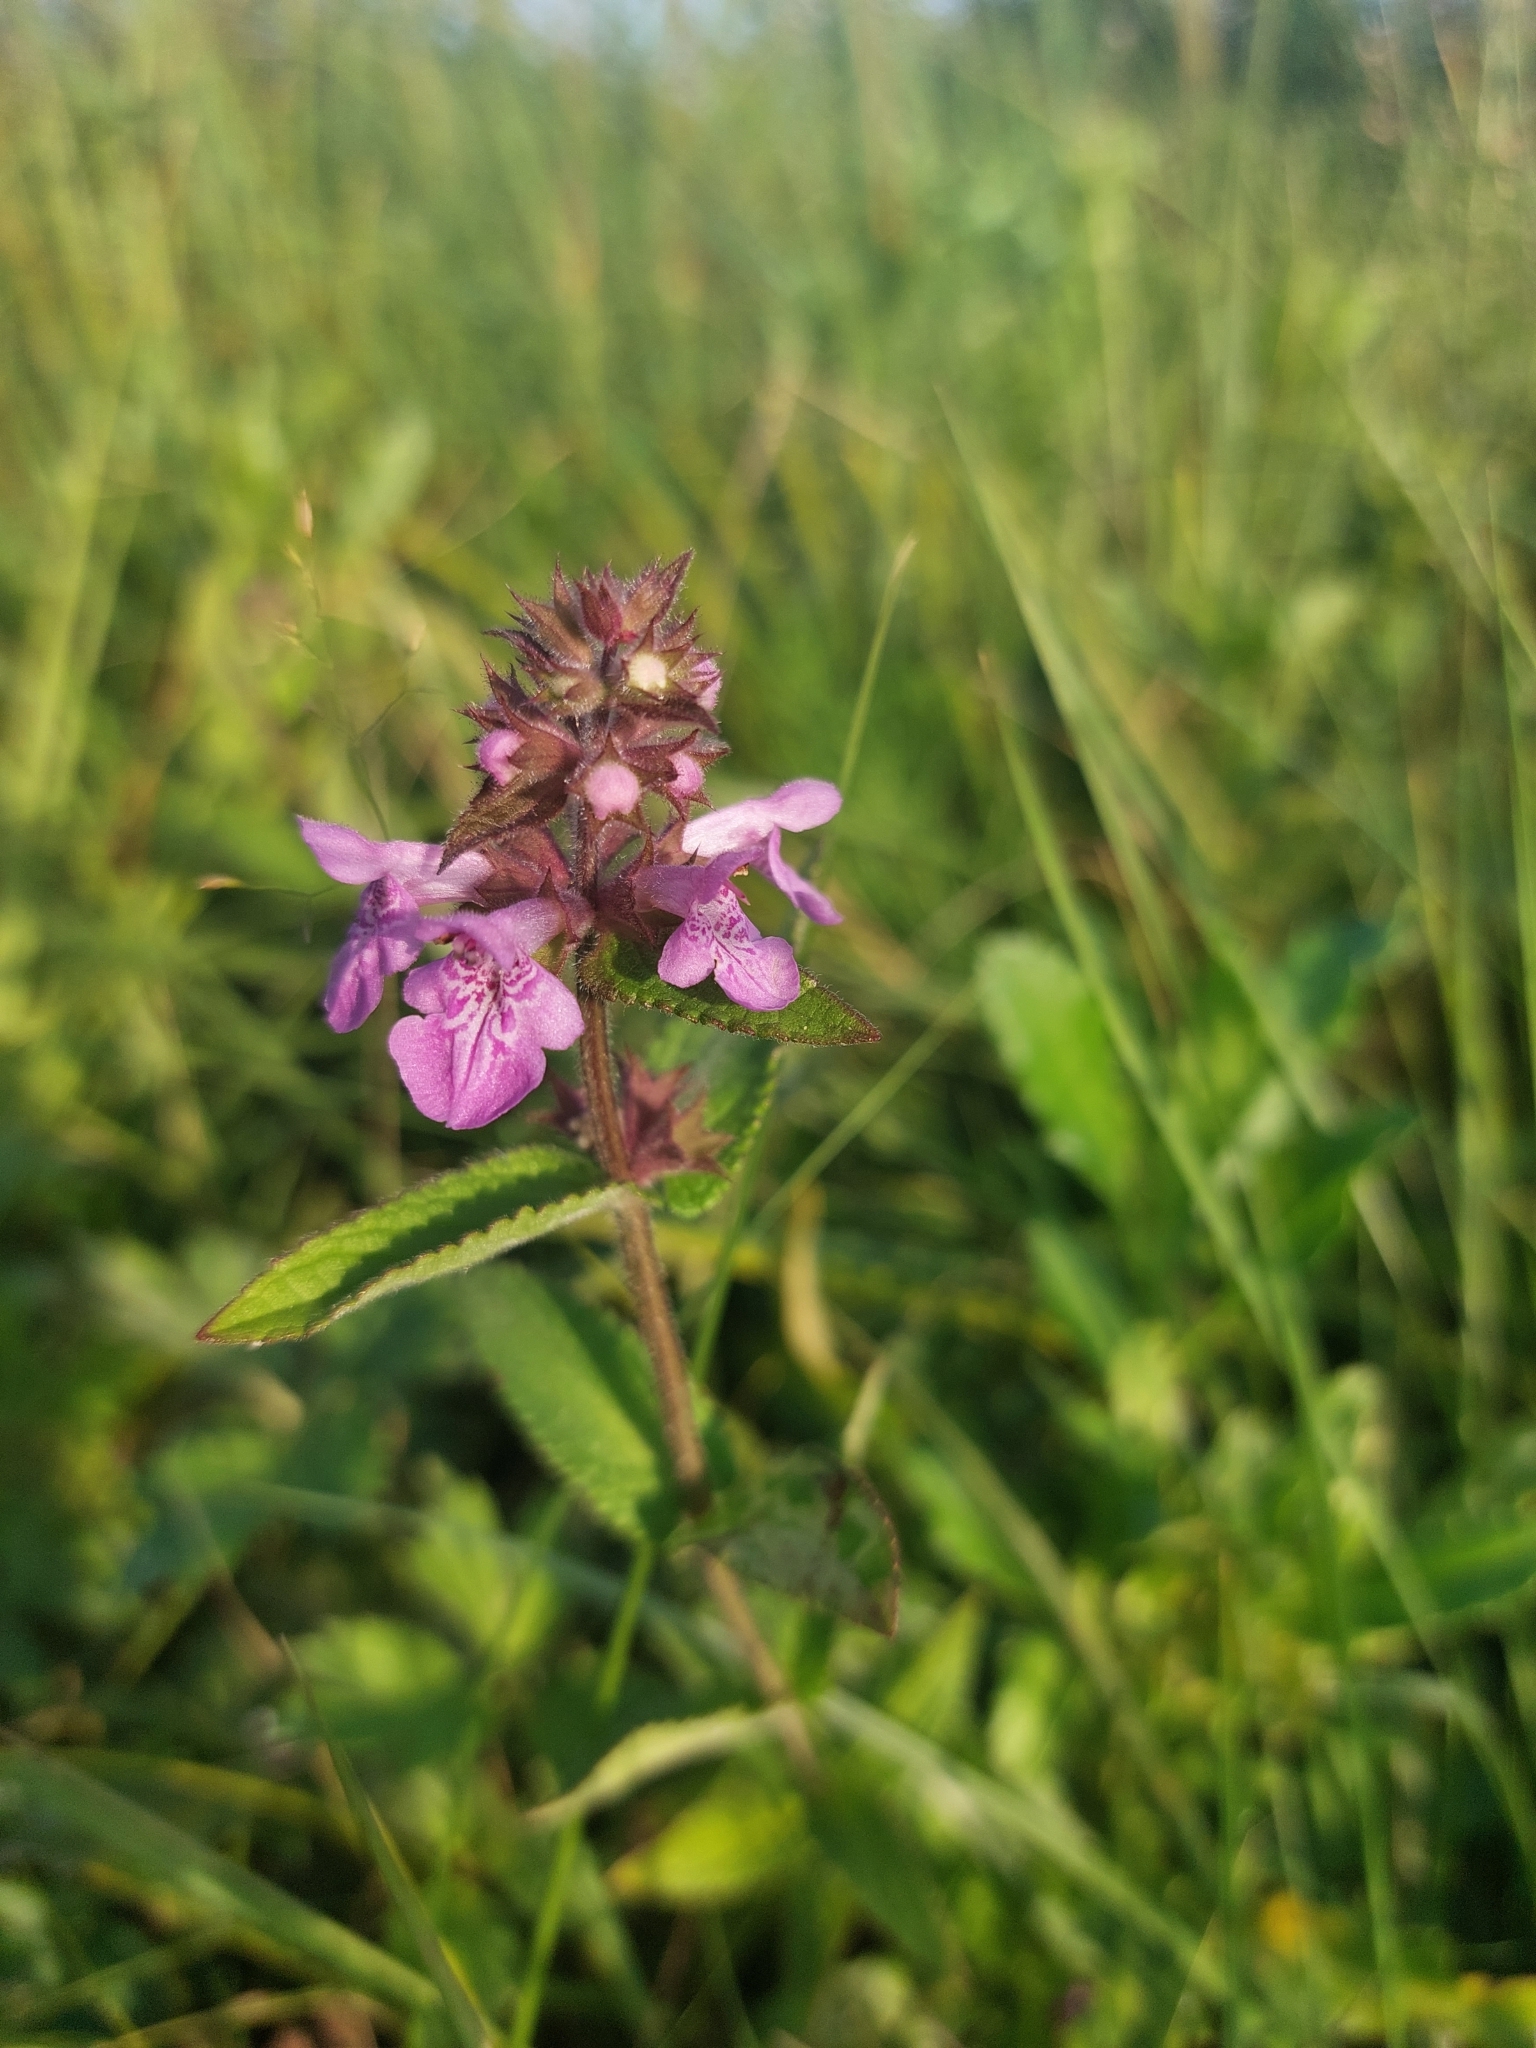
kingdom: Plantae
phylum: Tracheophyta
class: Magnoliopsida
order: Lamiales
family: Lamiaceae
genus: Stachys
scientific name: Stachys palustris
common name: Marsh woundwort
